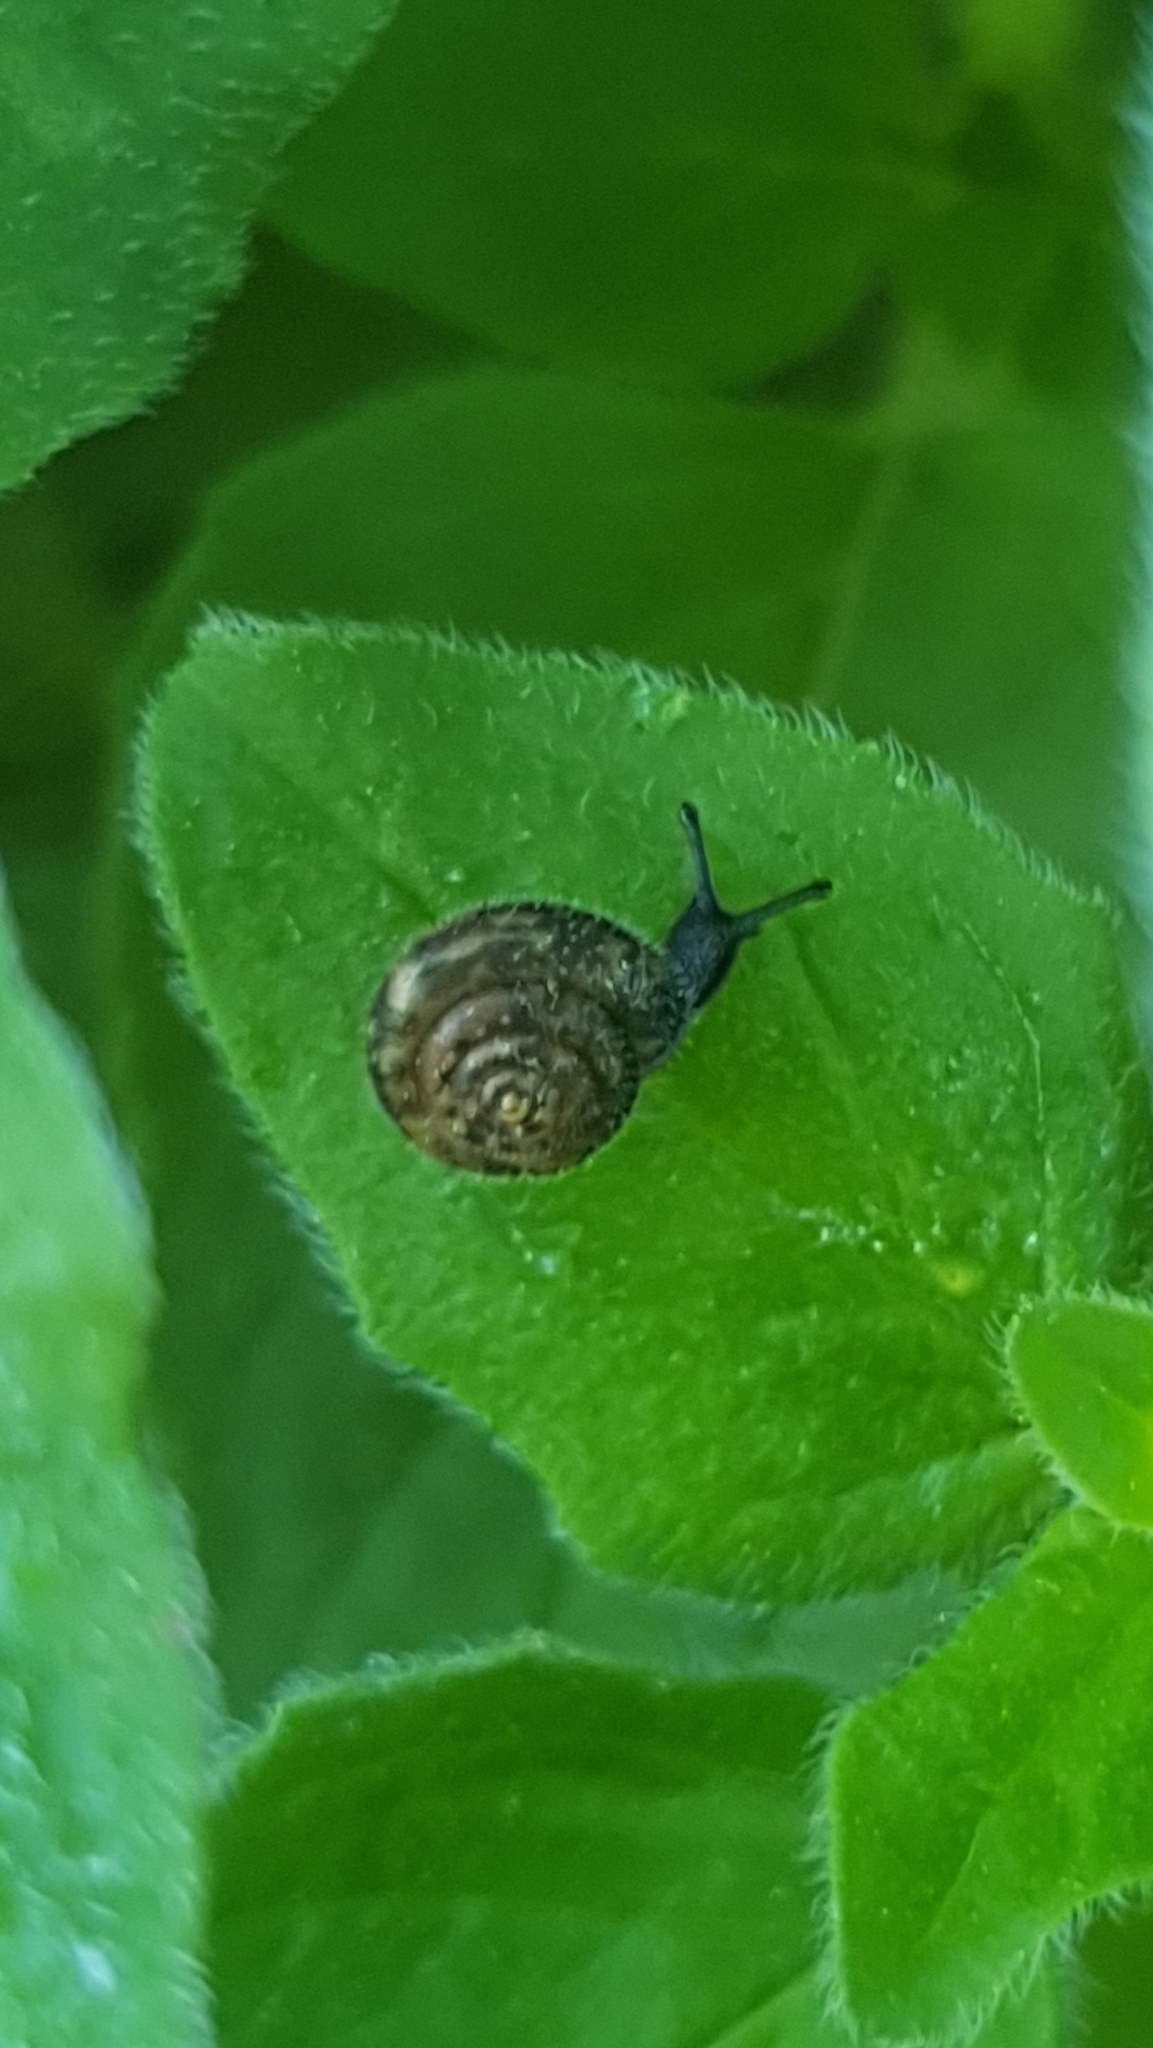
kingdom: Animalia
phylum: Mollusca
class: Gastropoda
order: Stylommatophora
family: Hygromiidae
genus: Trochulus
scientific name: Trochulus hispidus
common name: Hairy snail
